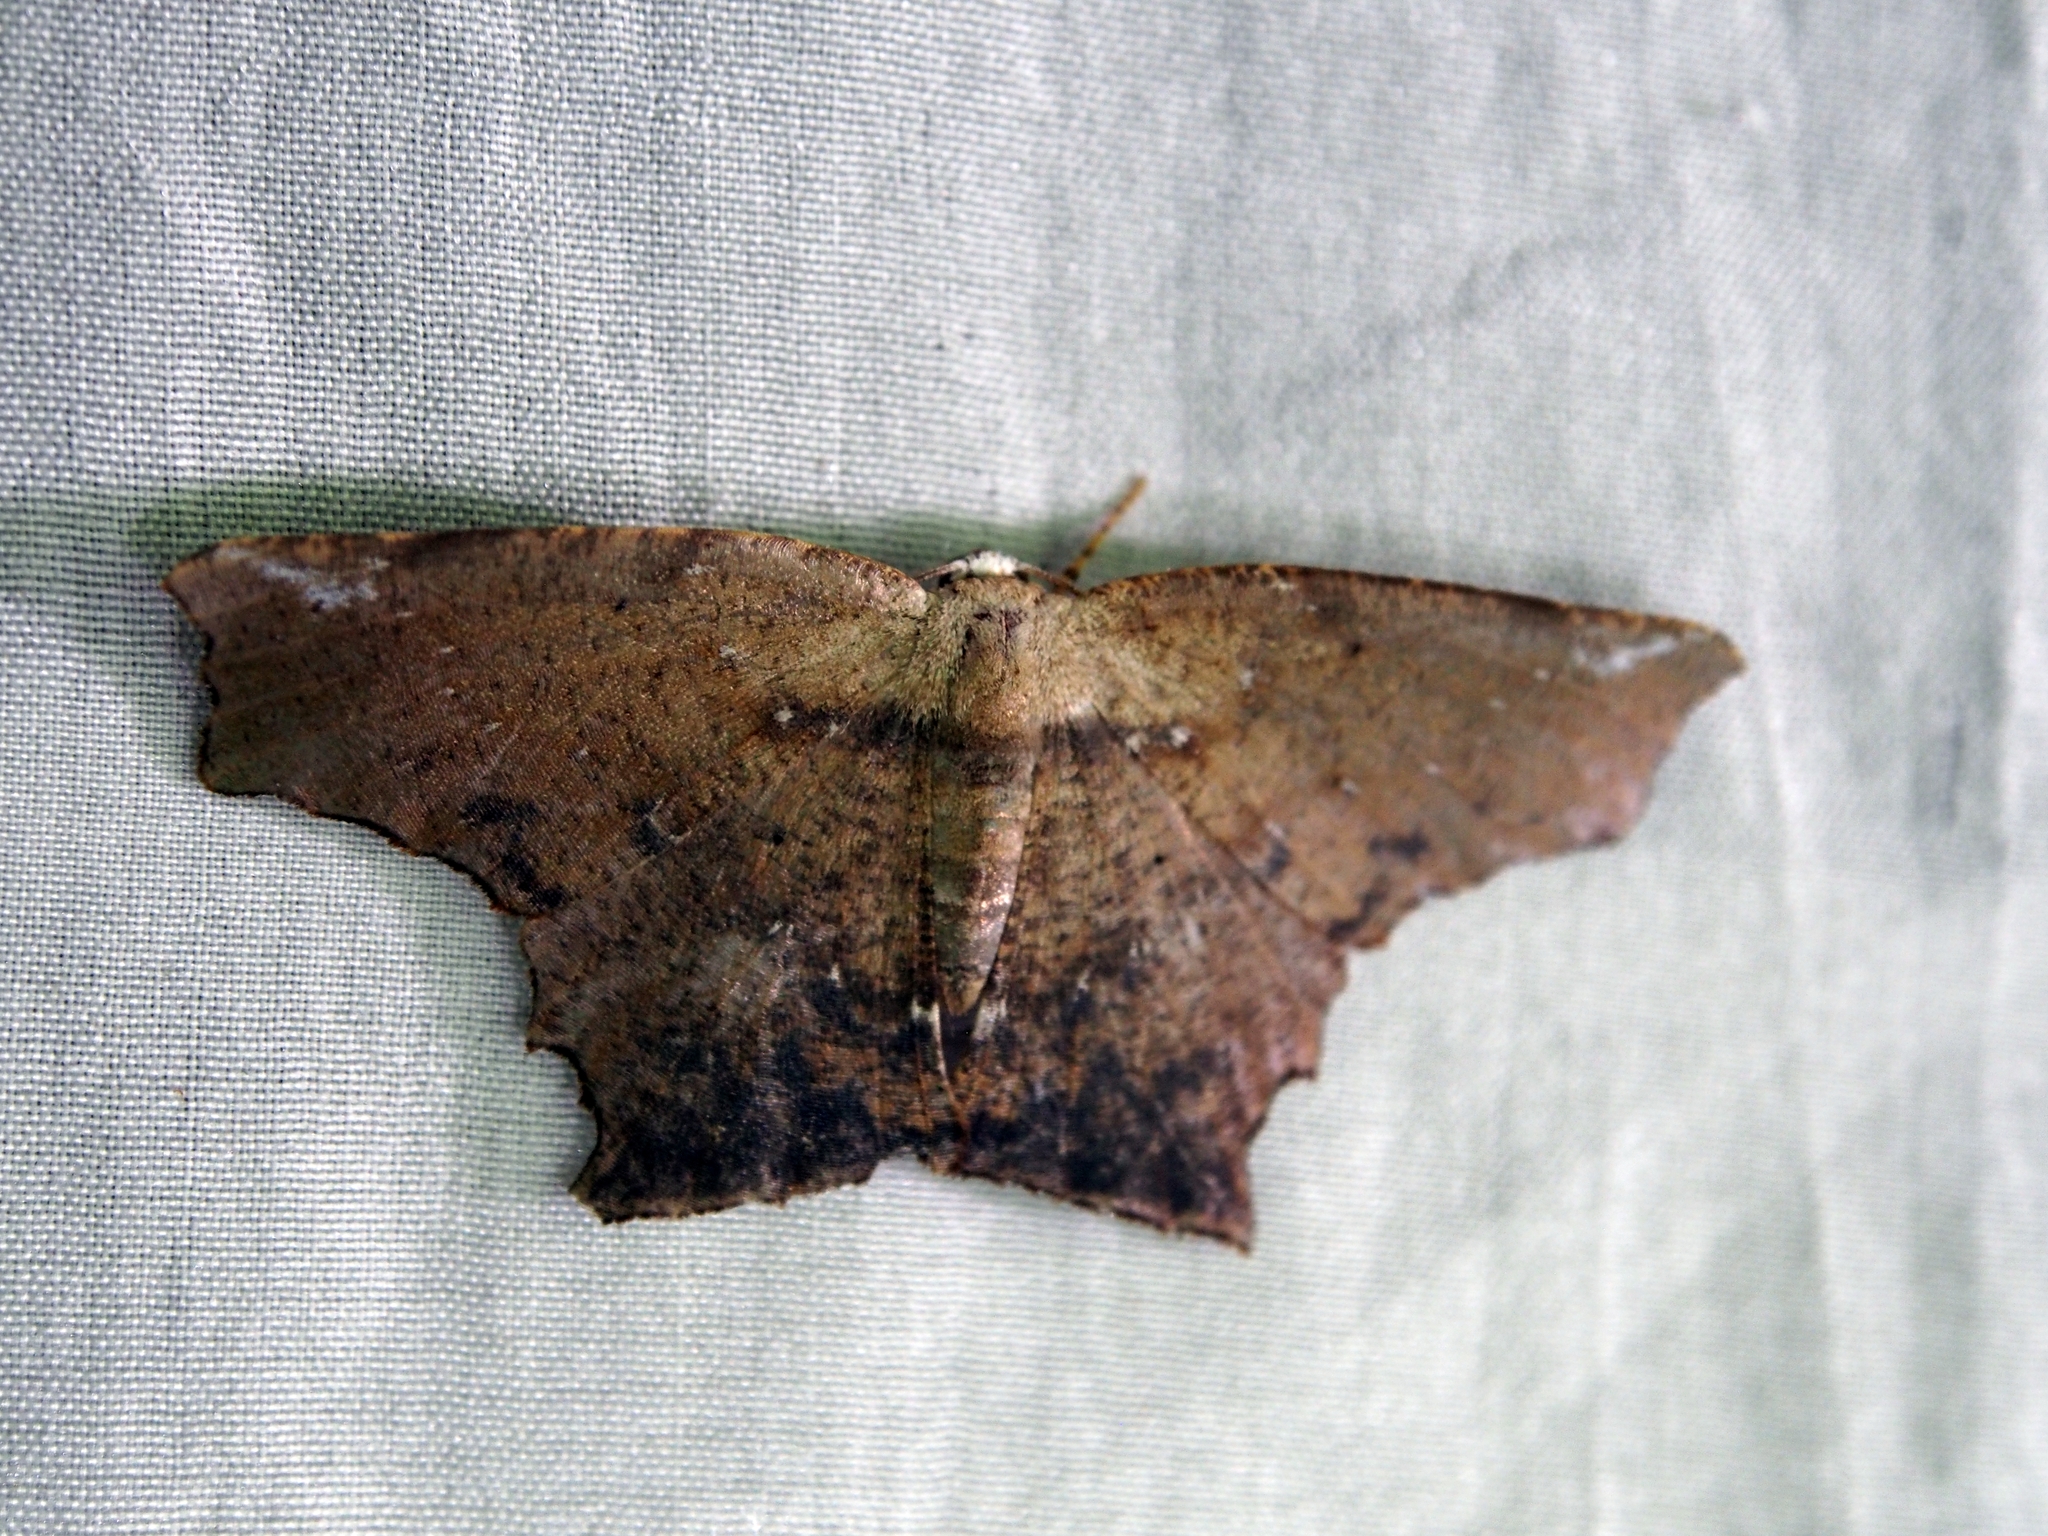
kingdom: Animalia
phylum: Arthropoda
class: Insecta
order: Lepidoptera
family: Geometridae
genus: Eutomopepla
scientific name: Eutomopepla discuneata
